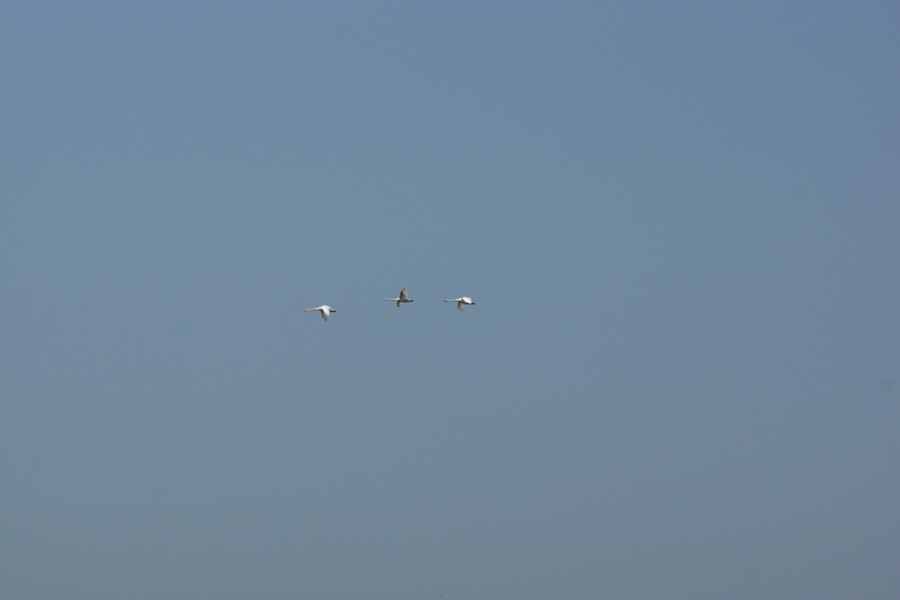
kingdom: Animalia
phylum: Chordata
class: Aves
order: Anseriformes
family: Anatidae
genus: Cygnus
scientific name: Cygnus olor
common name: Mute swan
